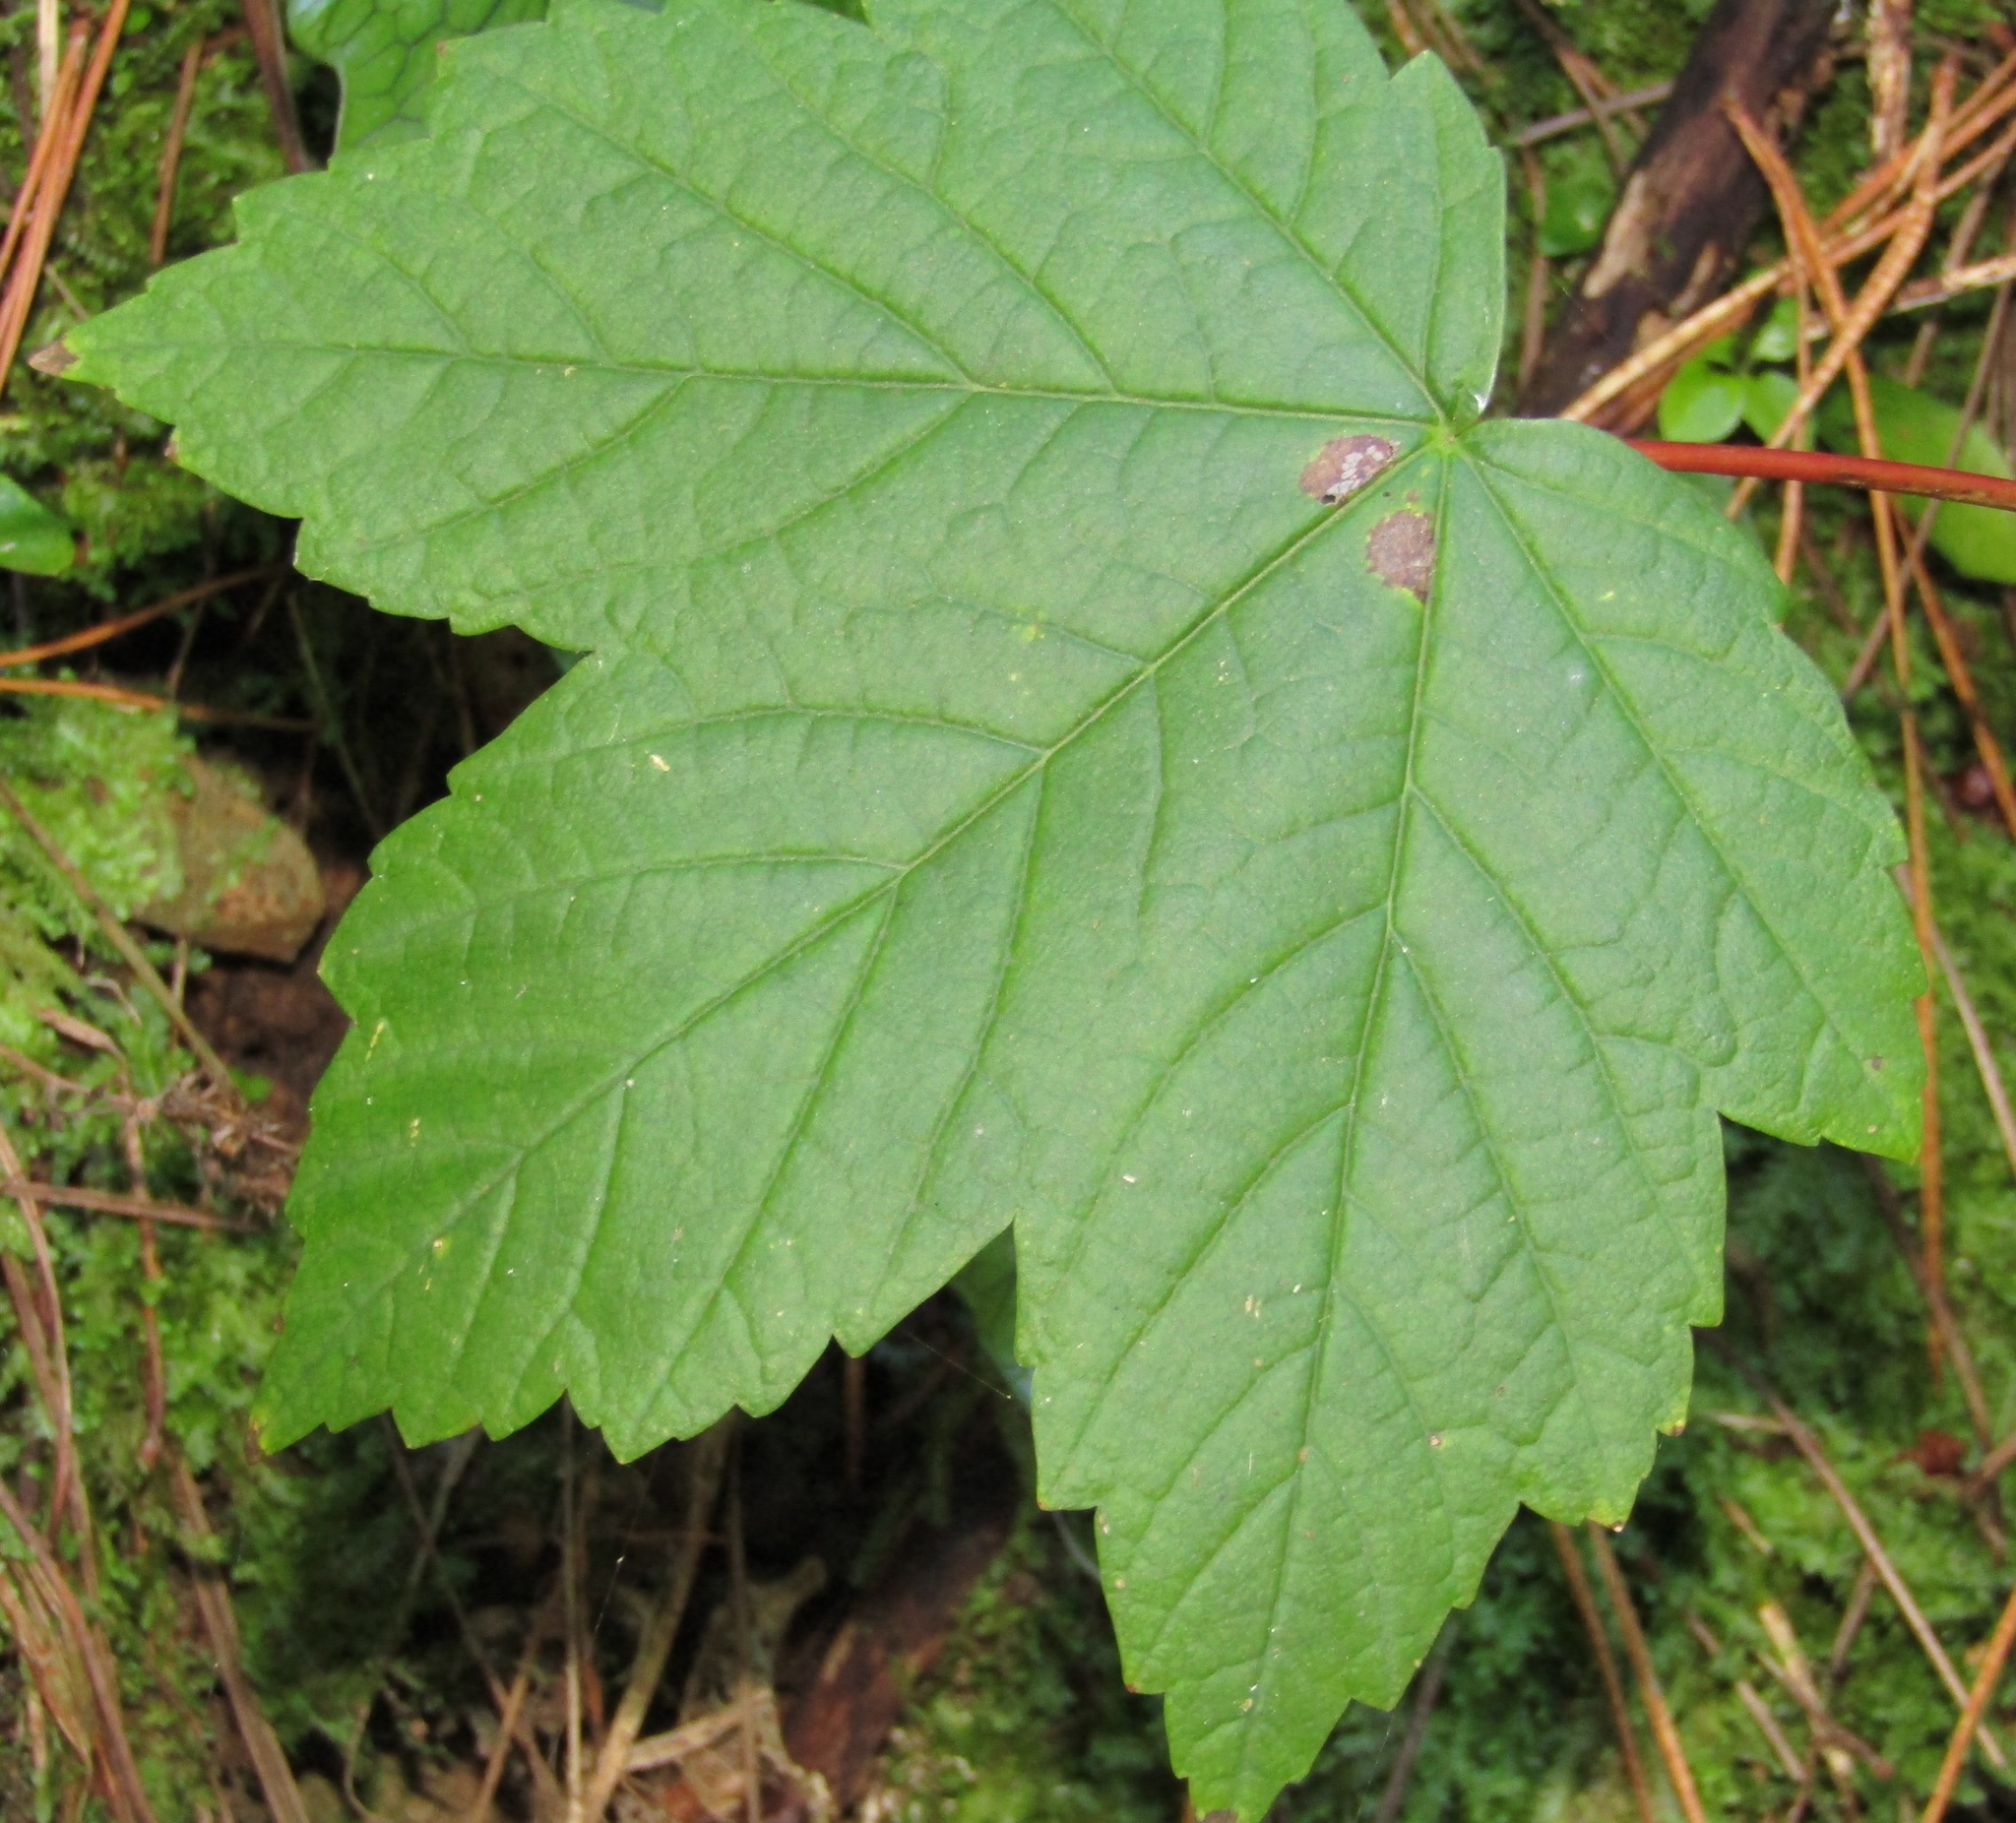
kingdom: Plantae
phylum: Tracheophyta
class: Magnoliopsida
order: Sapindales
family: Sapindaceae
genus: Acer
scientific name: Acer pseudoplatanus
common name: Sycamore
